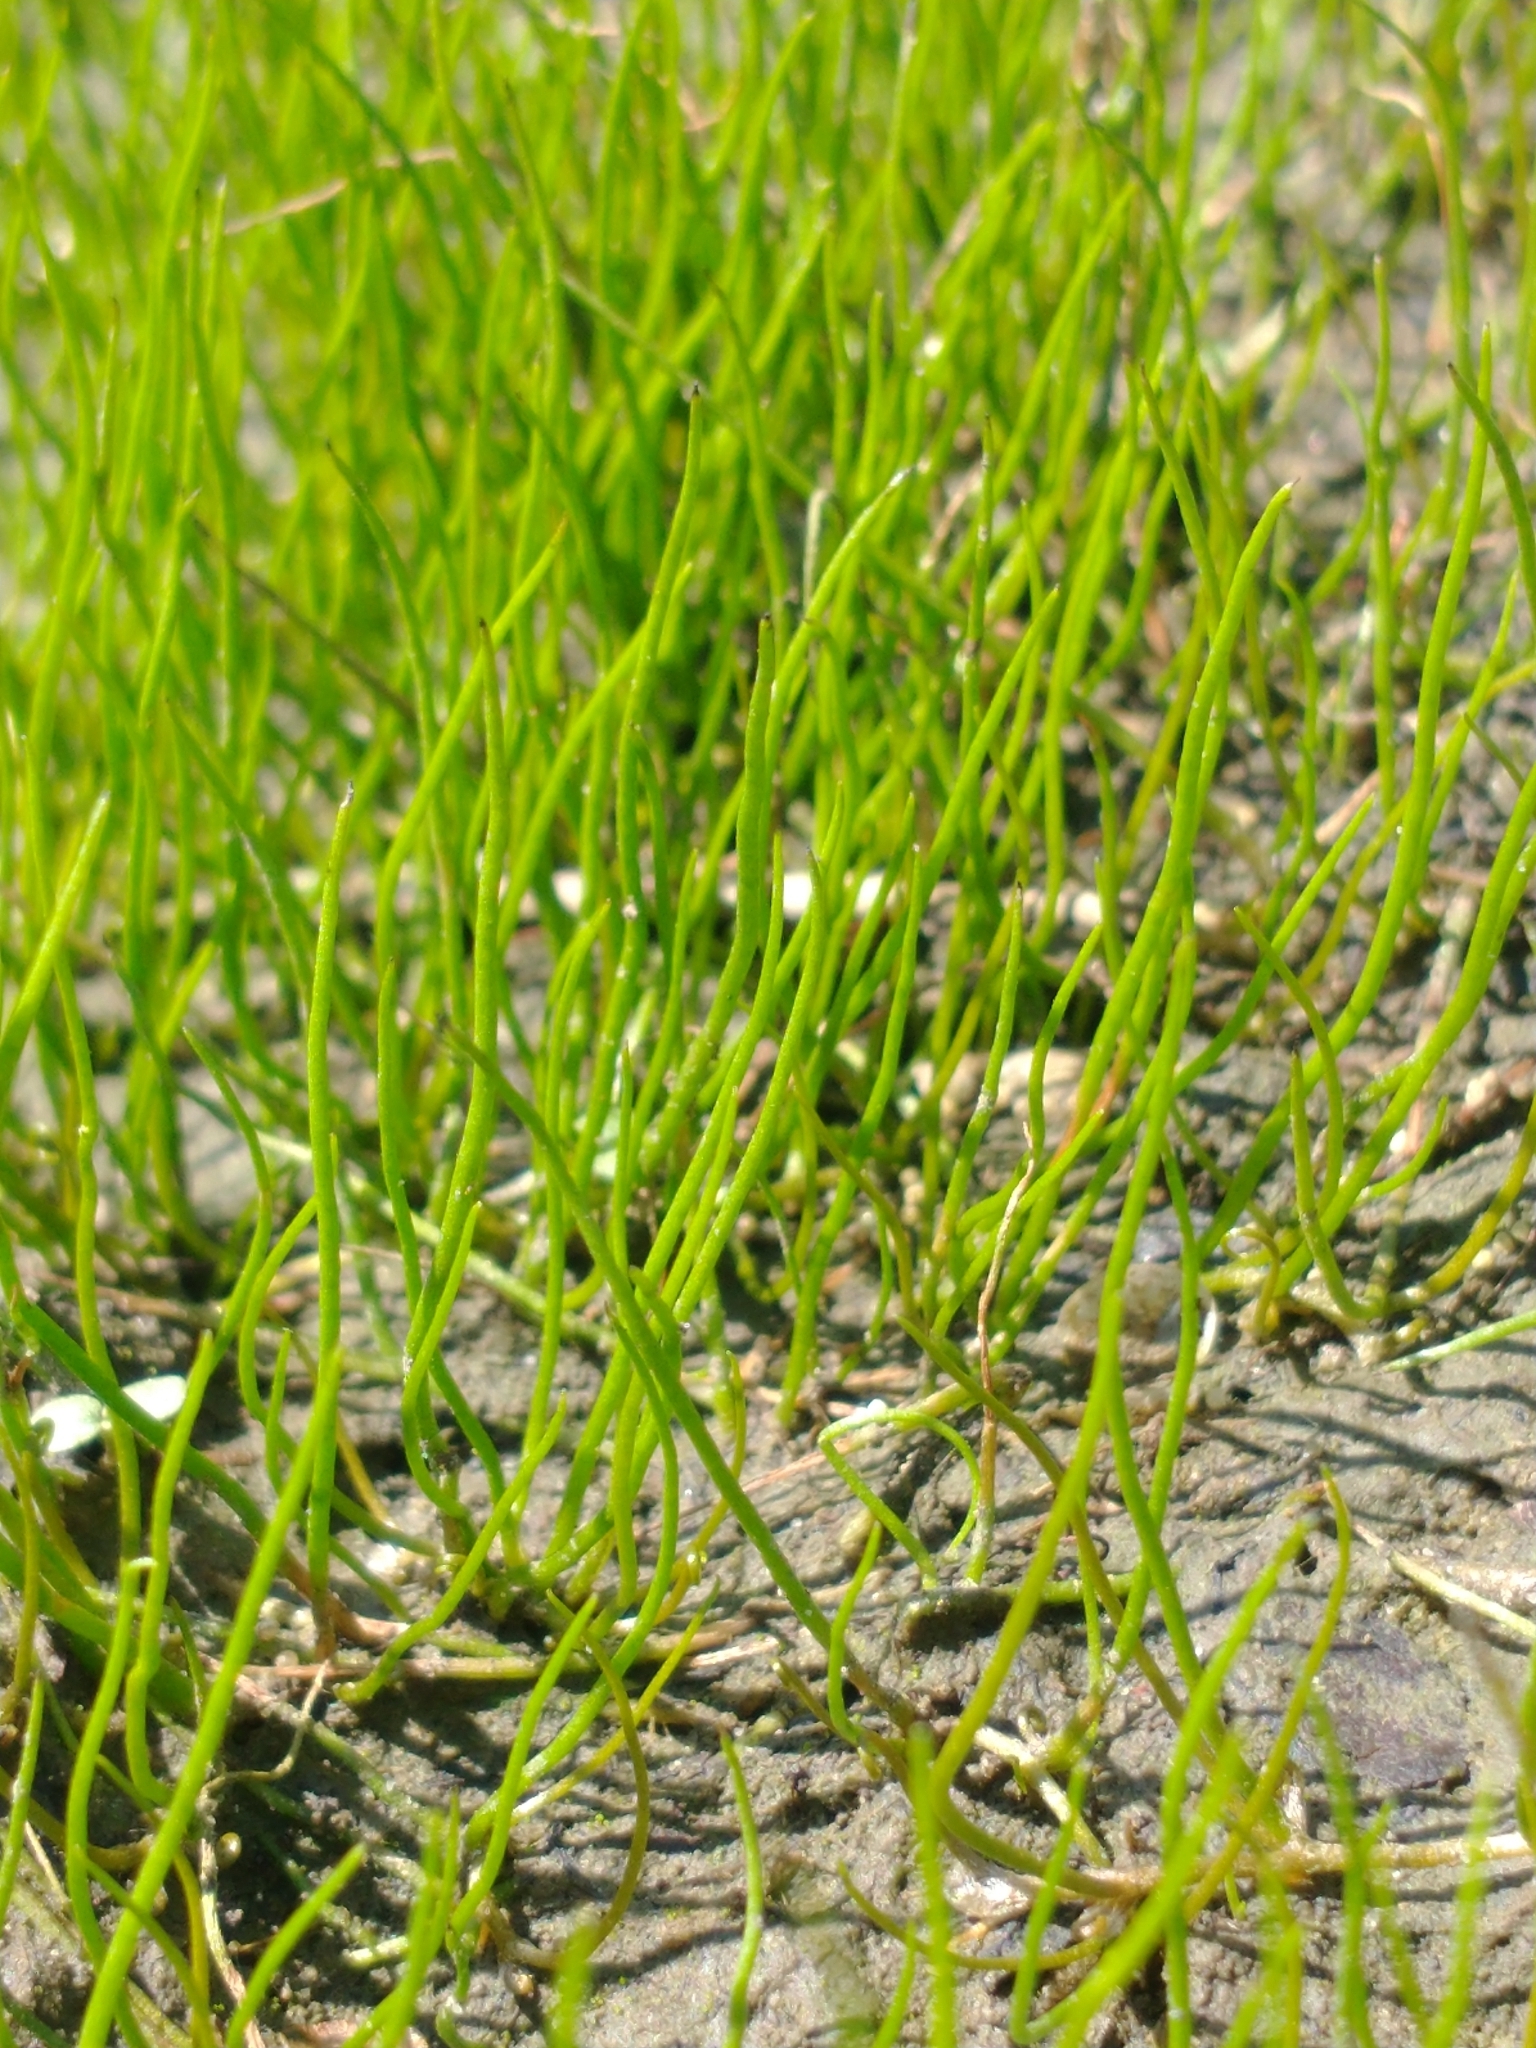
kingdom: Plantae
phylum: Tracheophyta
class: Polypodiopsida
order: Salviniales
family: Marsileaceae
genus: Pilularia
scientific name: Pilularia globulifera
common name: Pillwort
